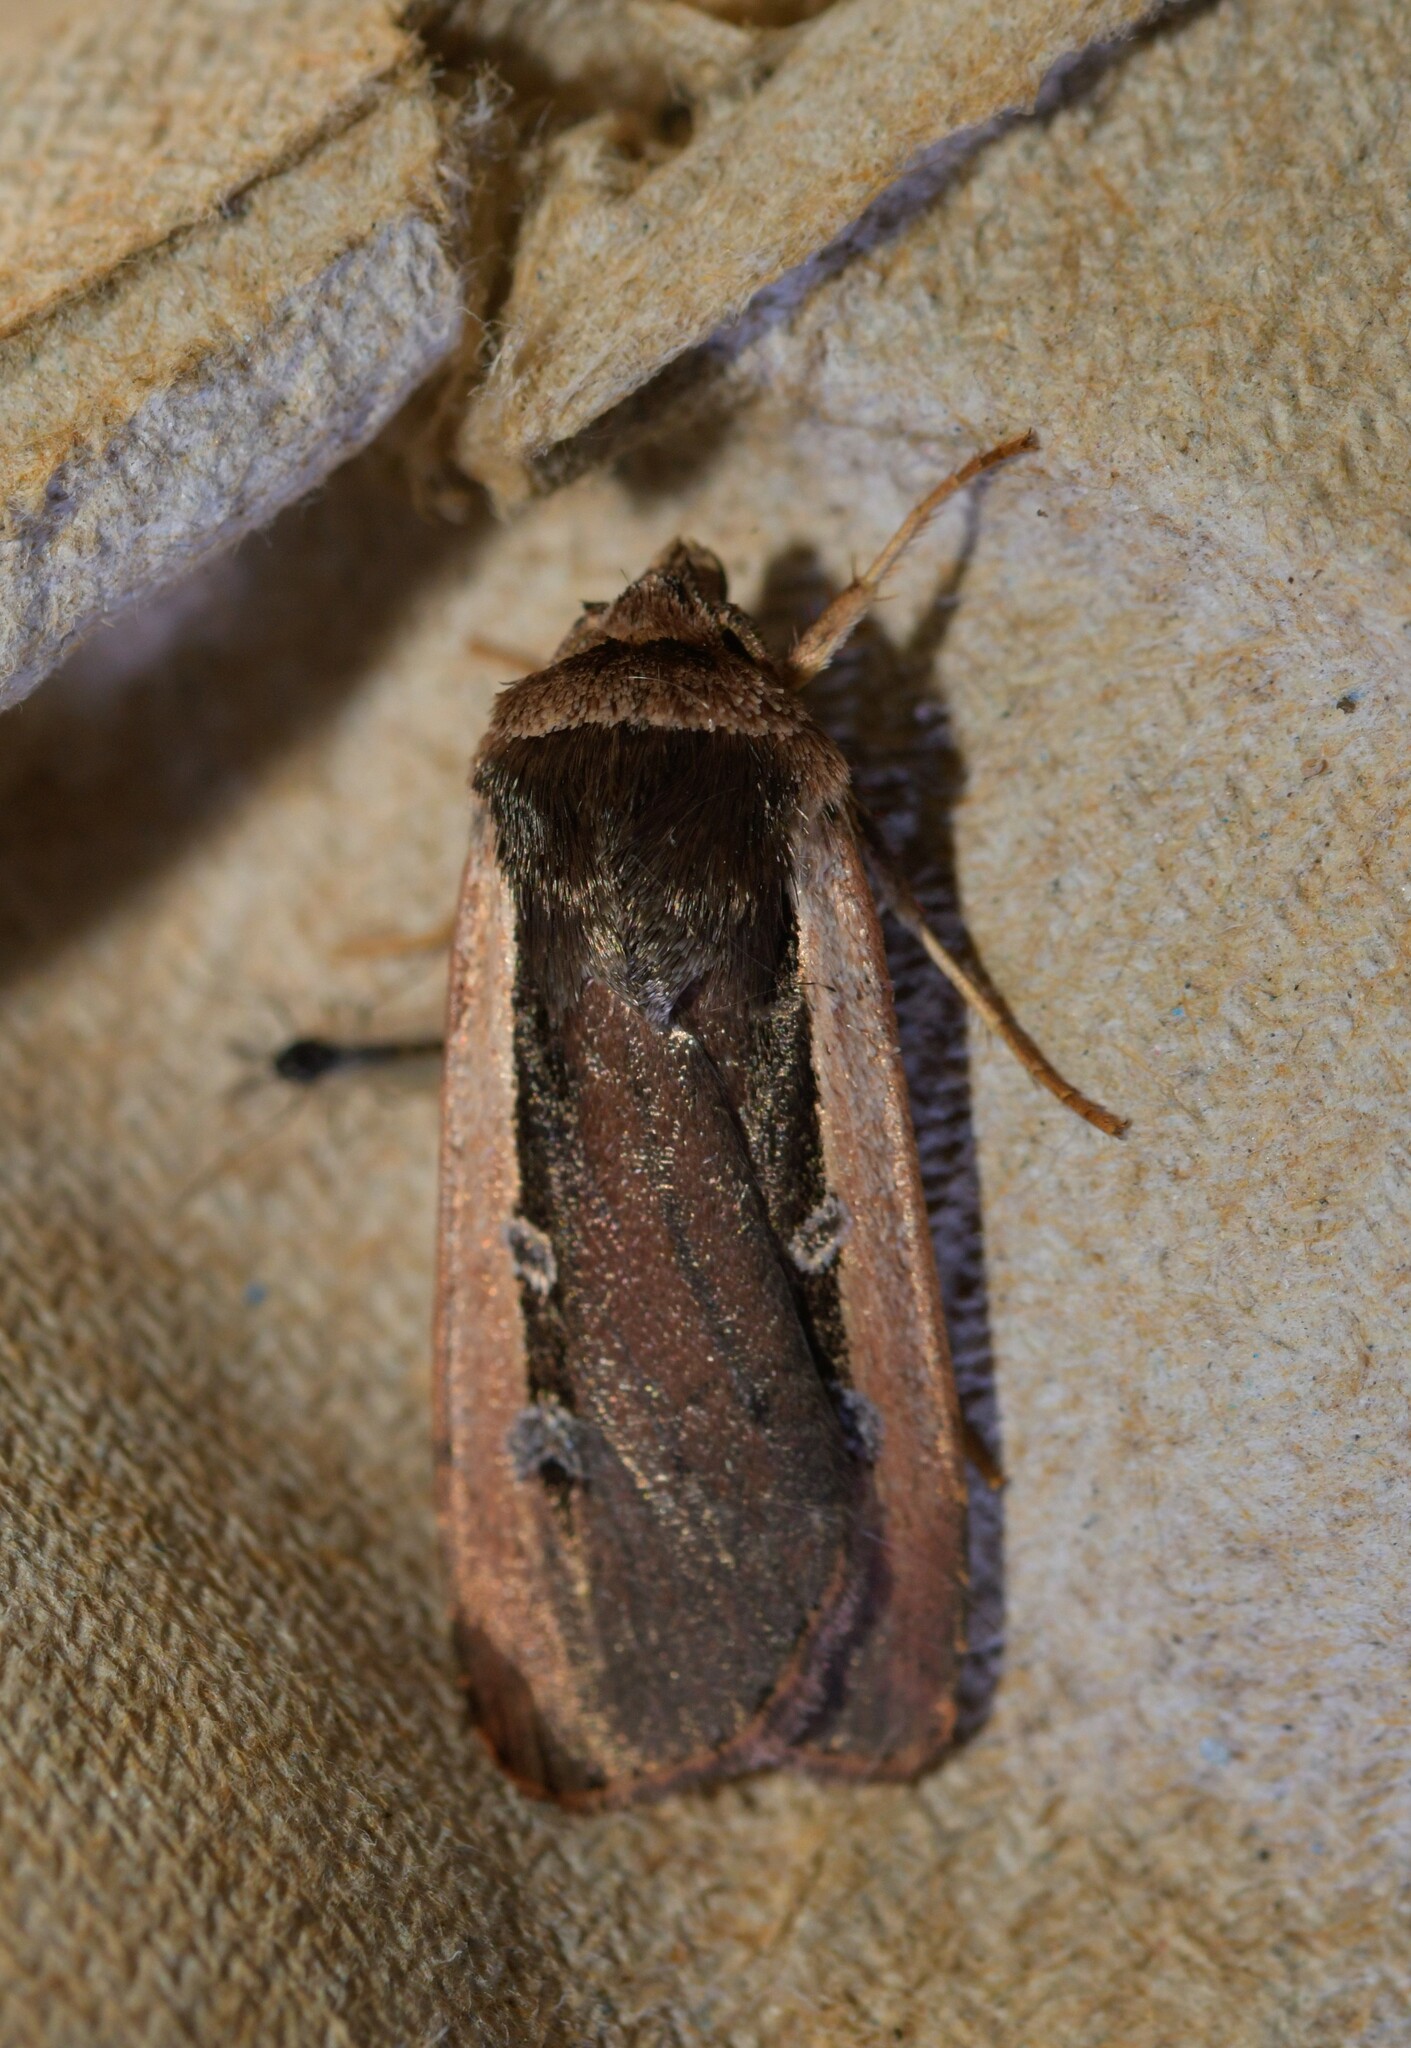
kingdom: Animalia
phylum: Arthropoda
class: Insecta
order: Lepidoptera
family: Noctuidae
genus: Ochropleura
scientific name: Ochropleura leucogaster
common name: Radford's flame shoulder
